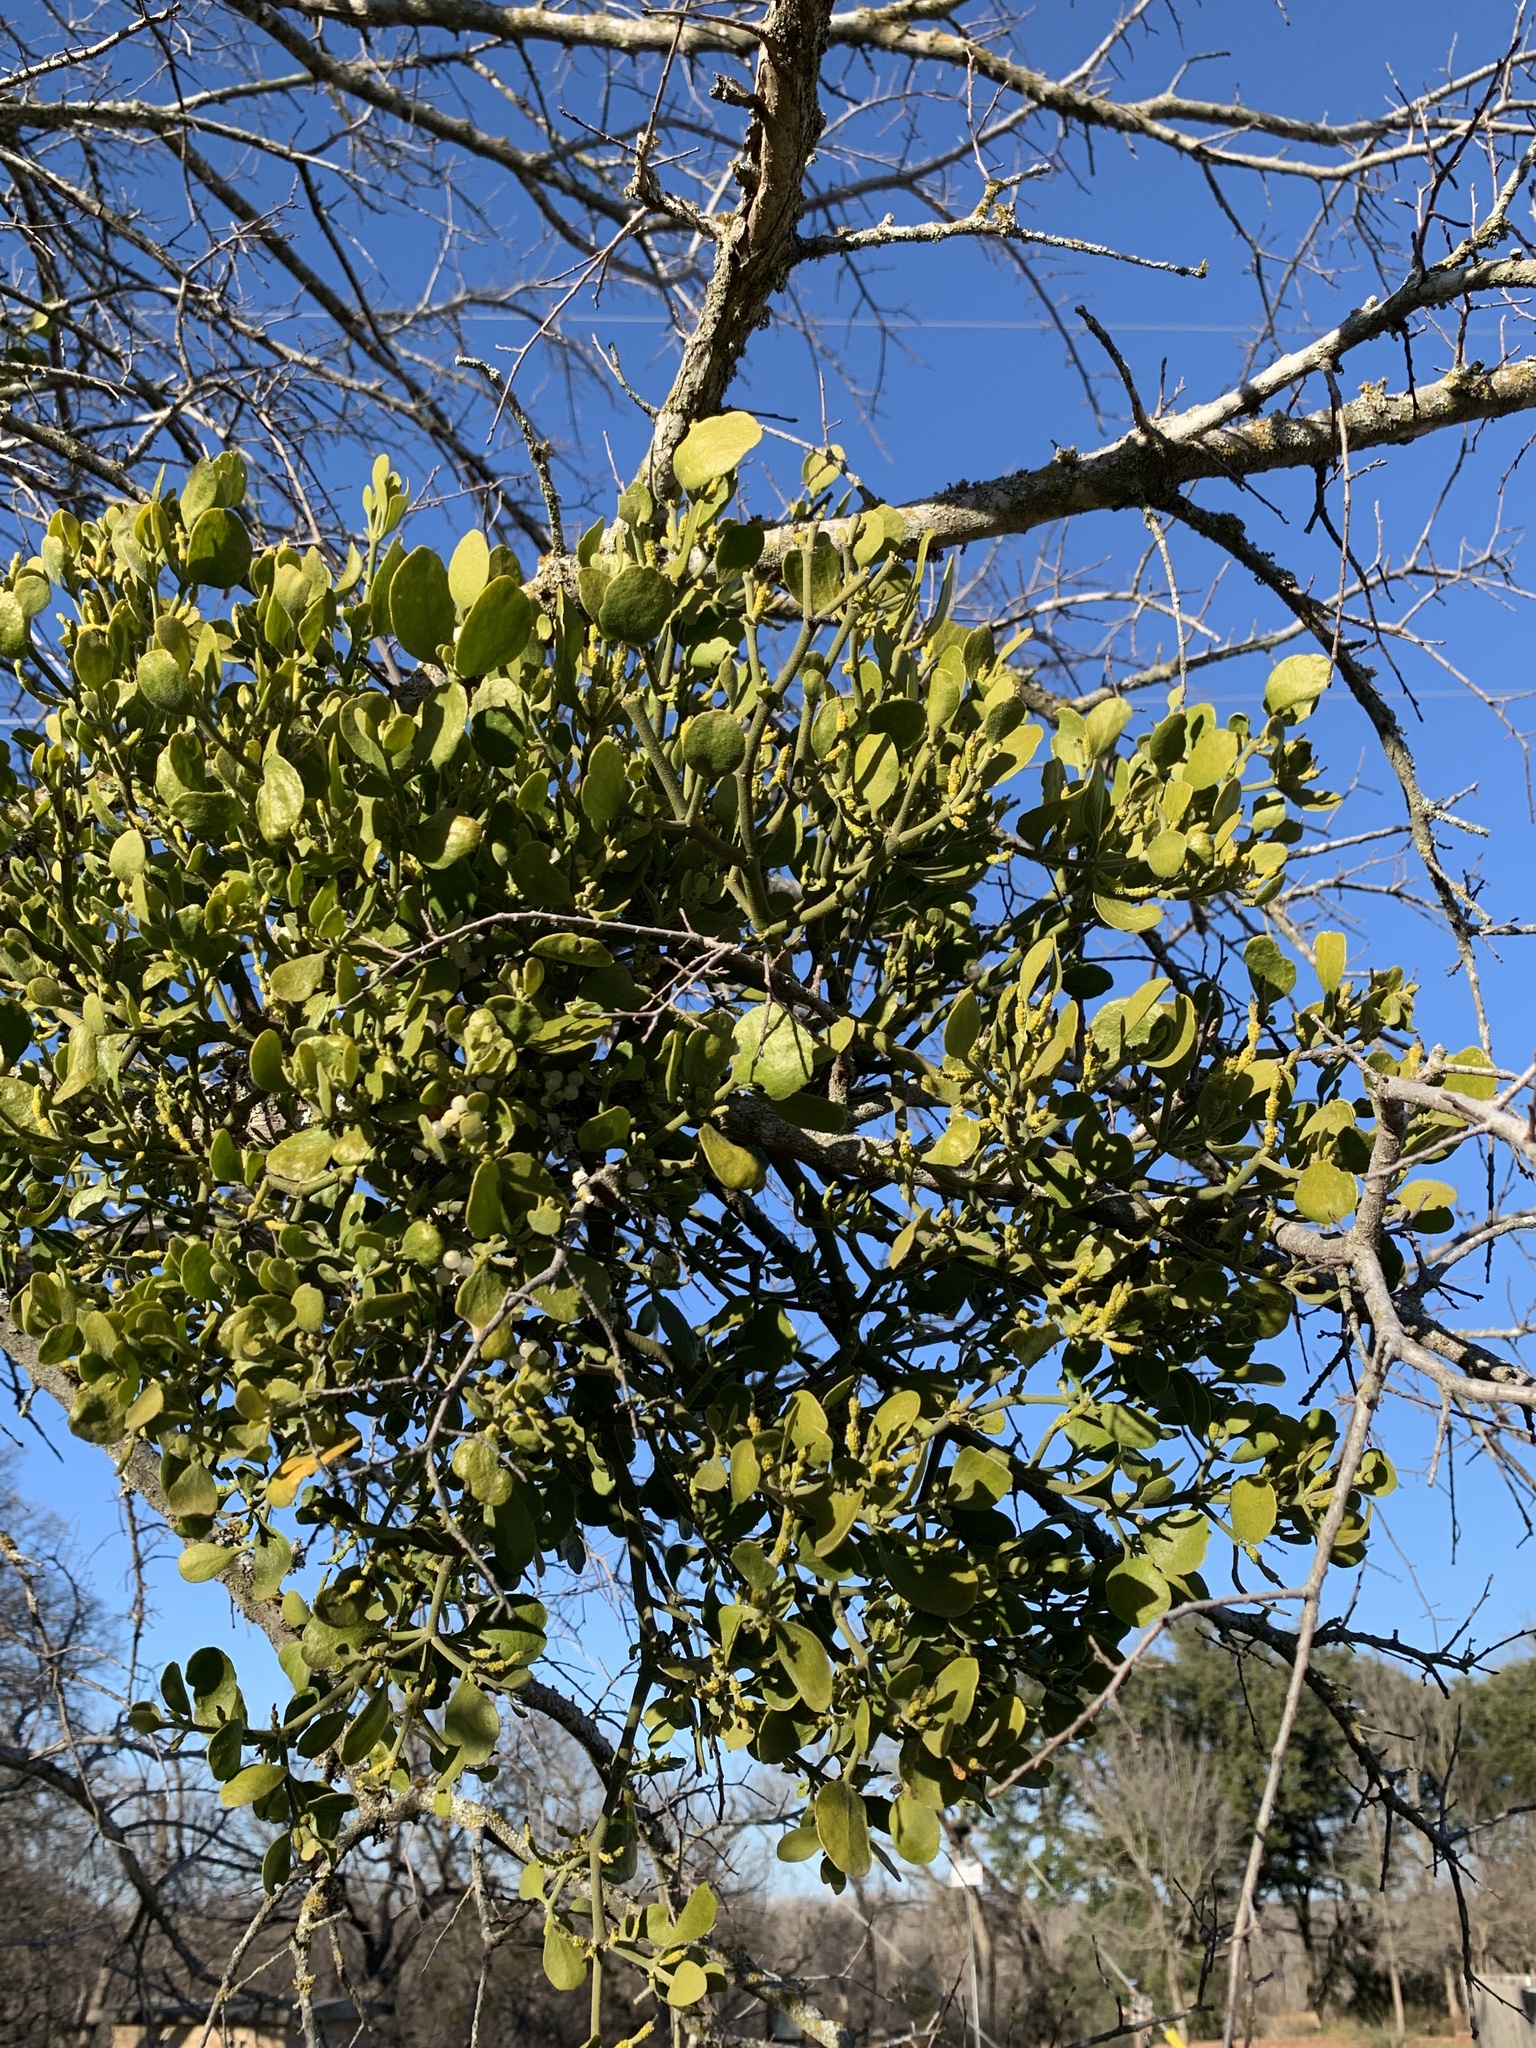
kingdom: Plantae
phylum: Tracheophyta
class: Magnoliopsida
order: Santalales
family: Viscaceae
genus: Phoradendron
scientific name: Phoradendron leucarpum
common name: Pacific mistletoe
